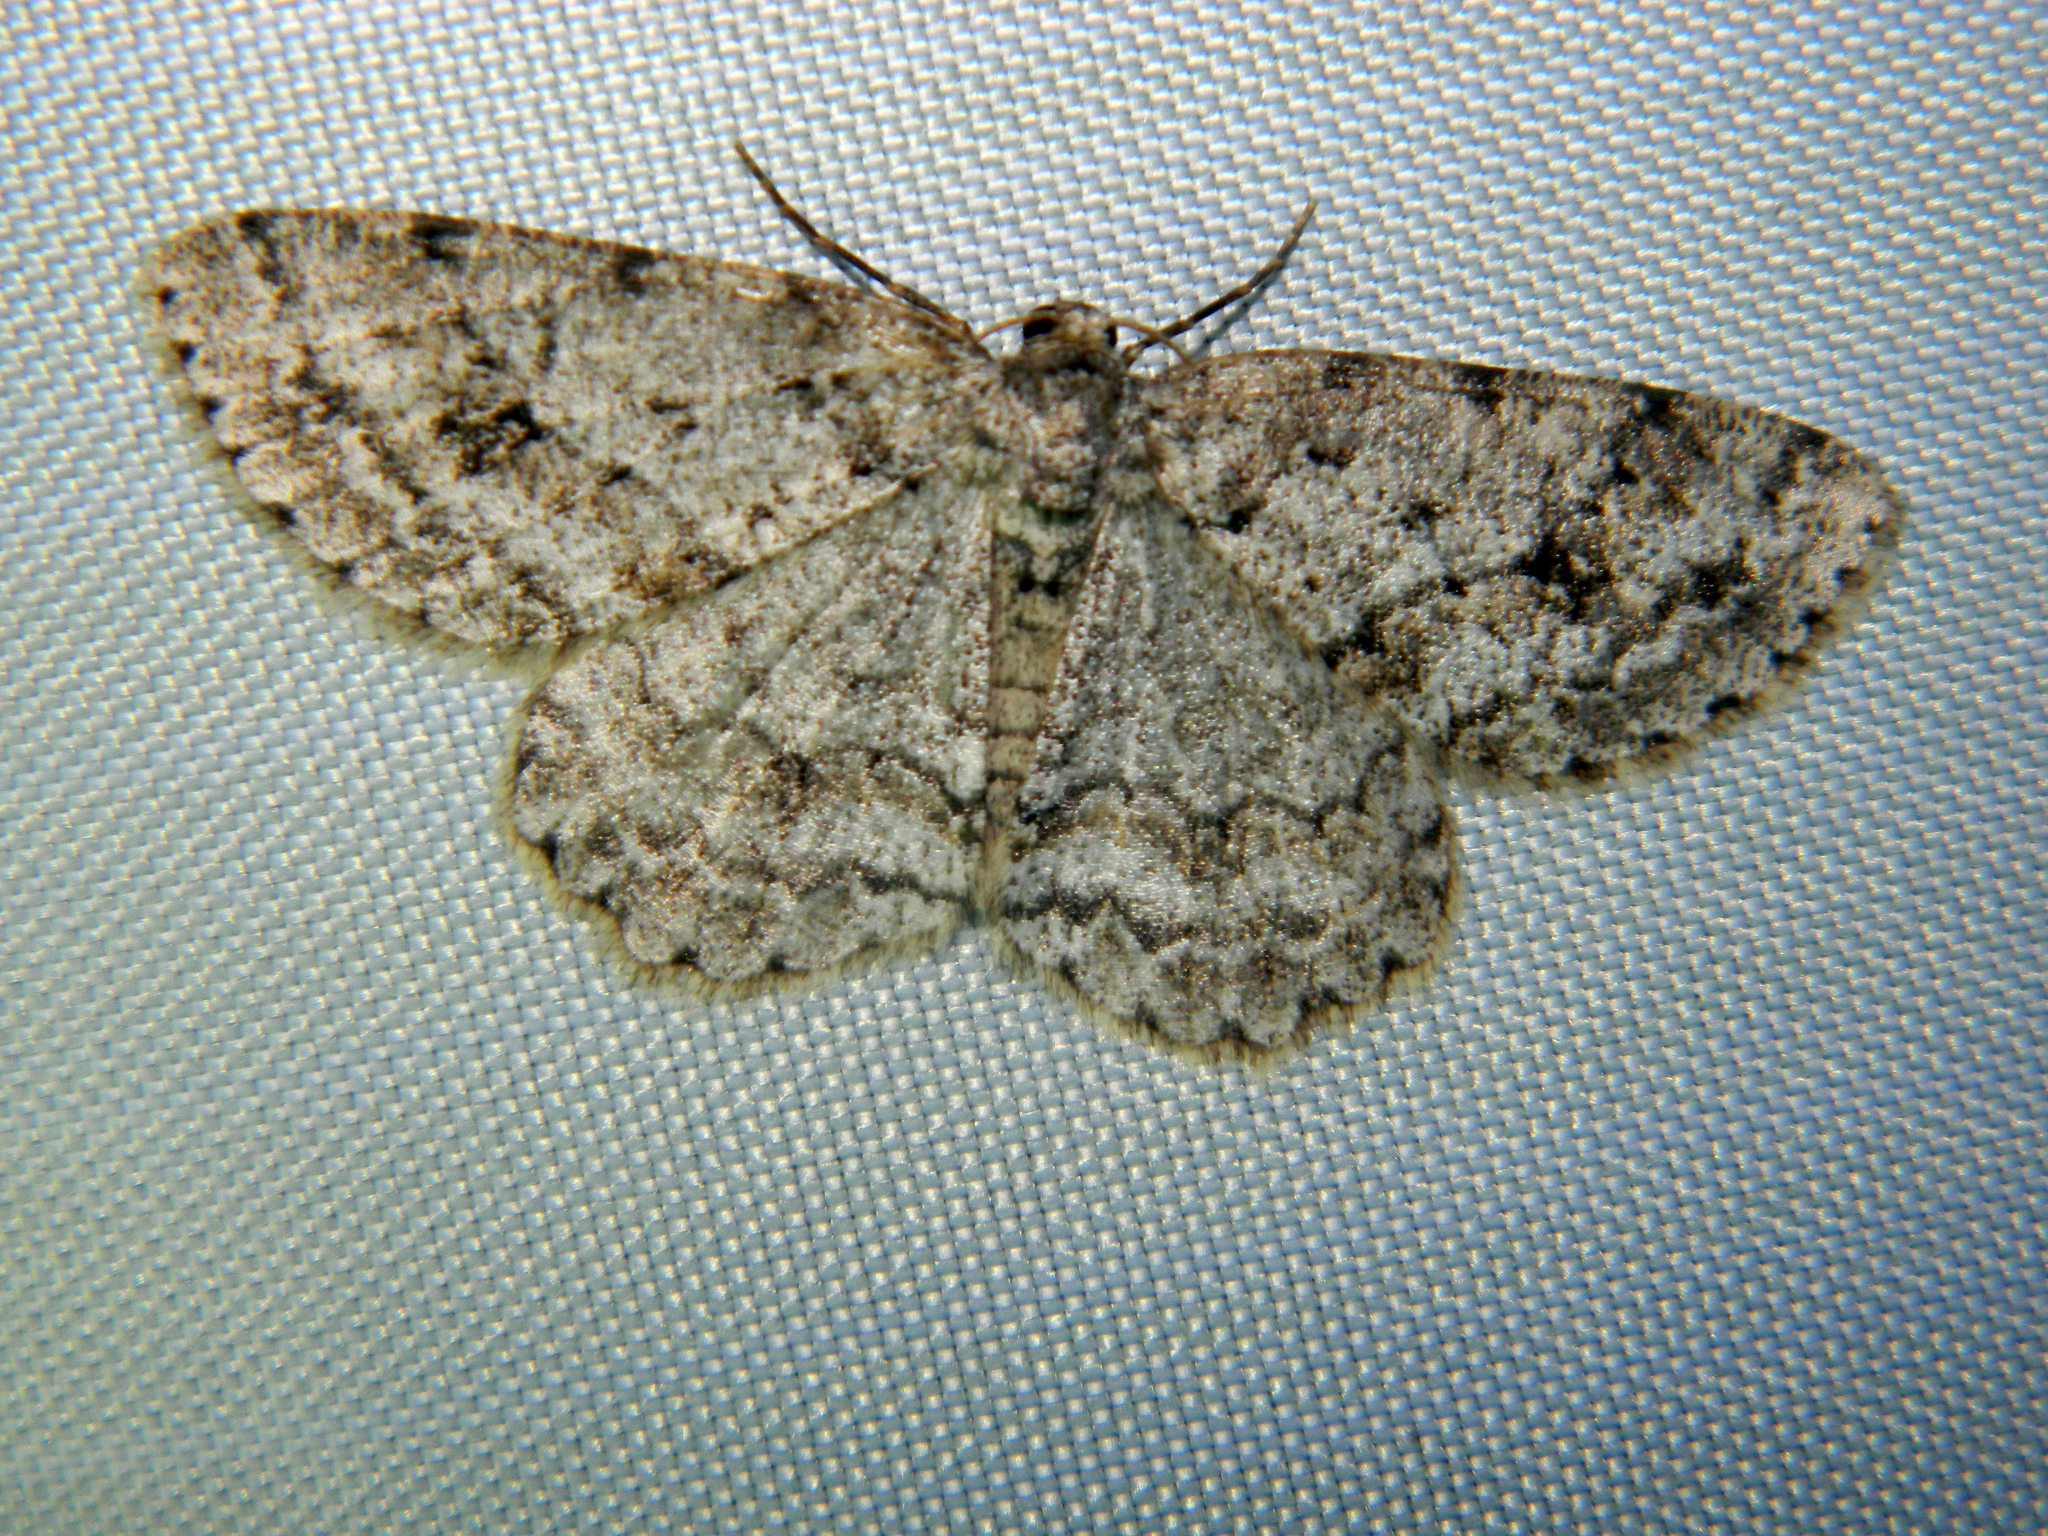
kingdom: Animalia
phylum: Arthropoda
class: Insecta
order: Lepidoptera
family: Geometridae
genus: Ectropis
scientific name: Ectropis crepuscularia
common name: Engrailed
